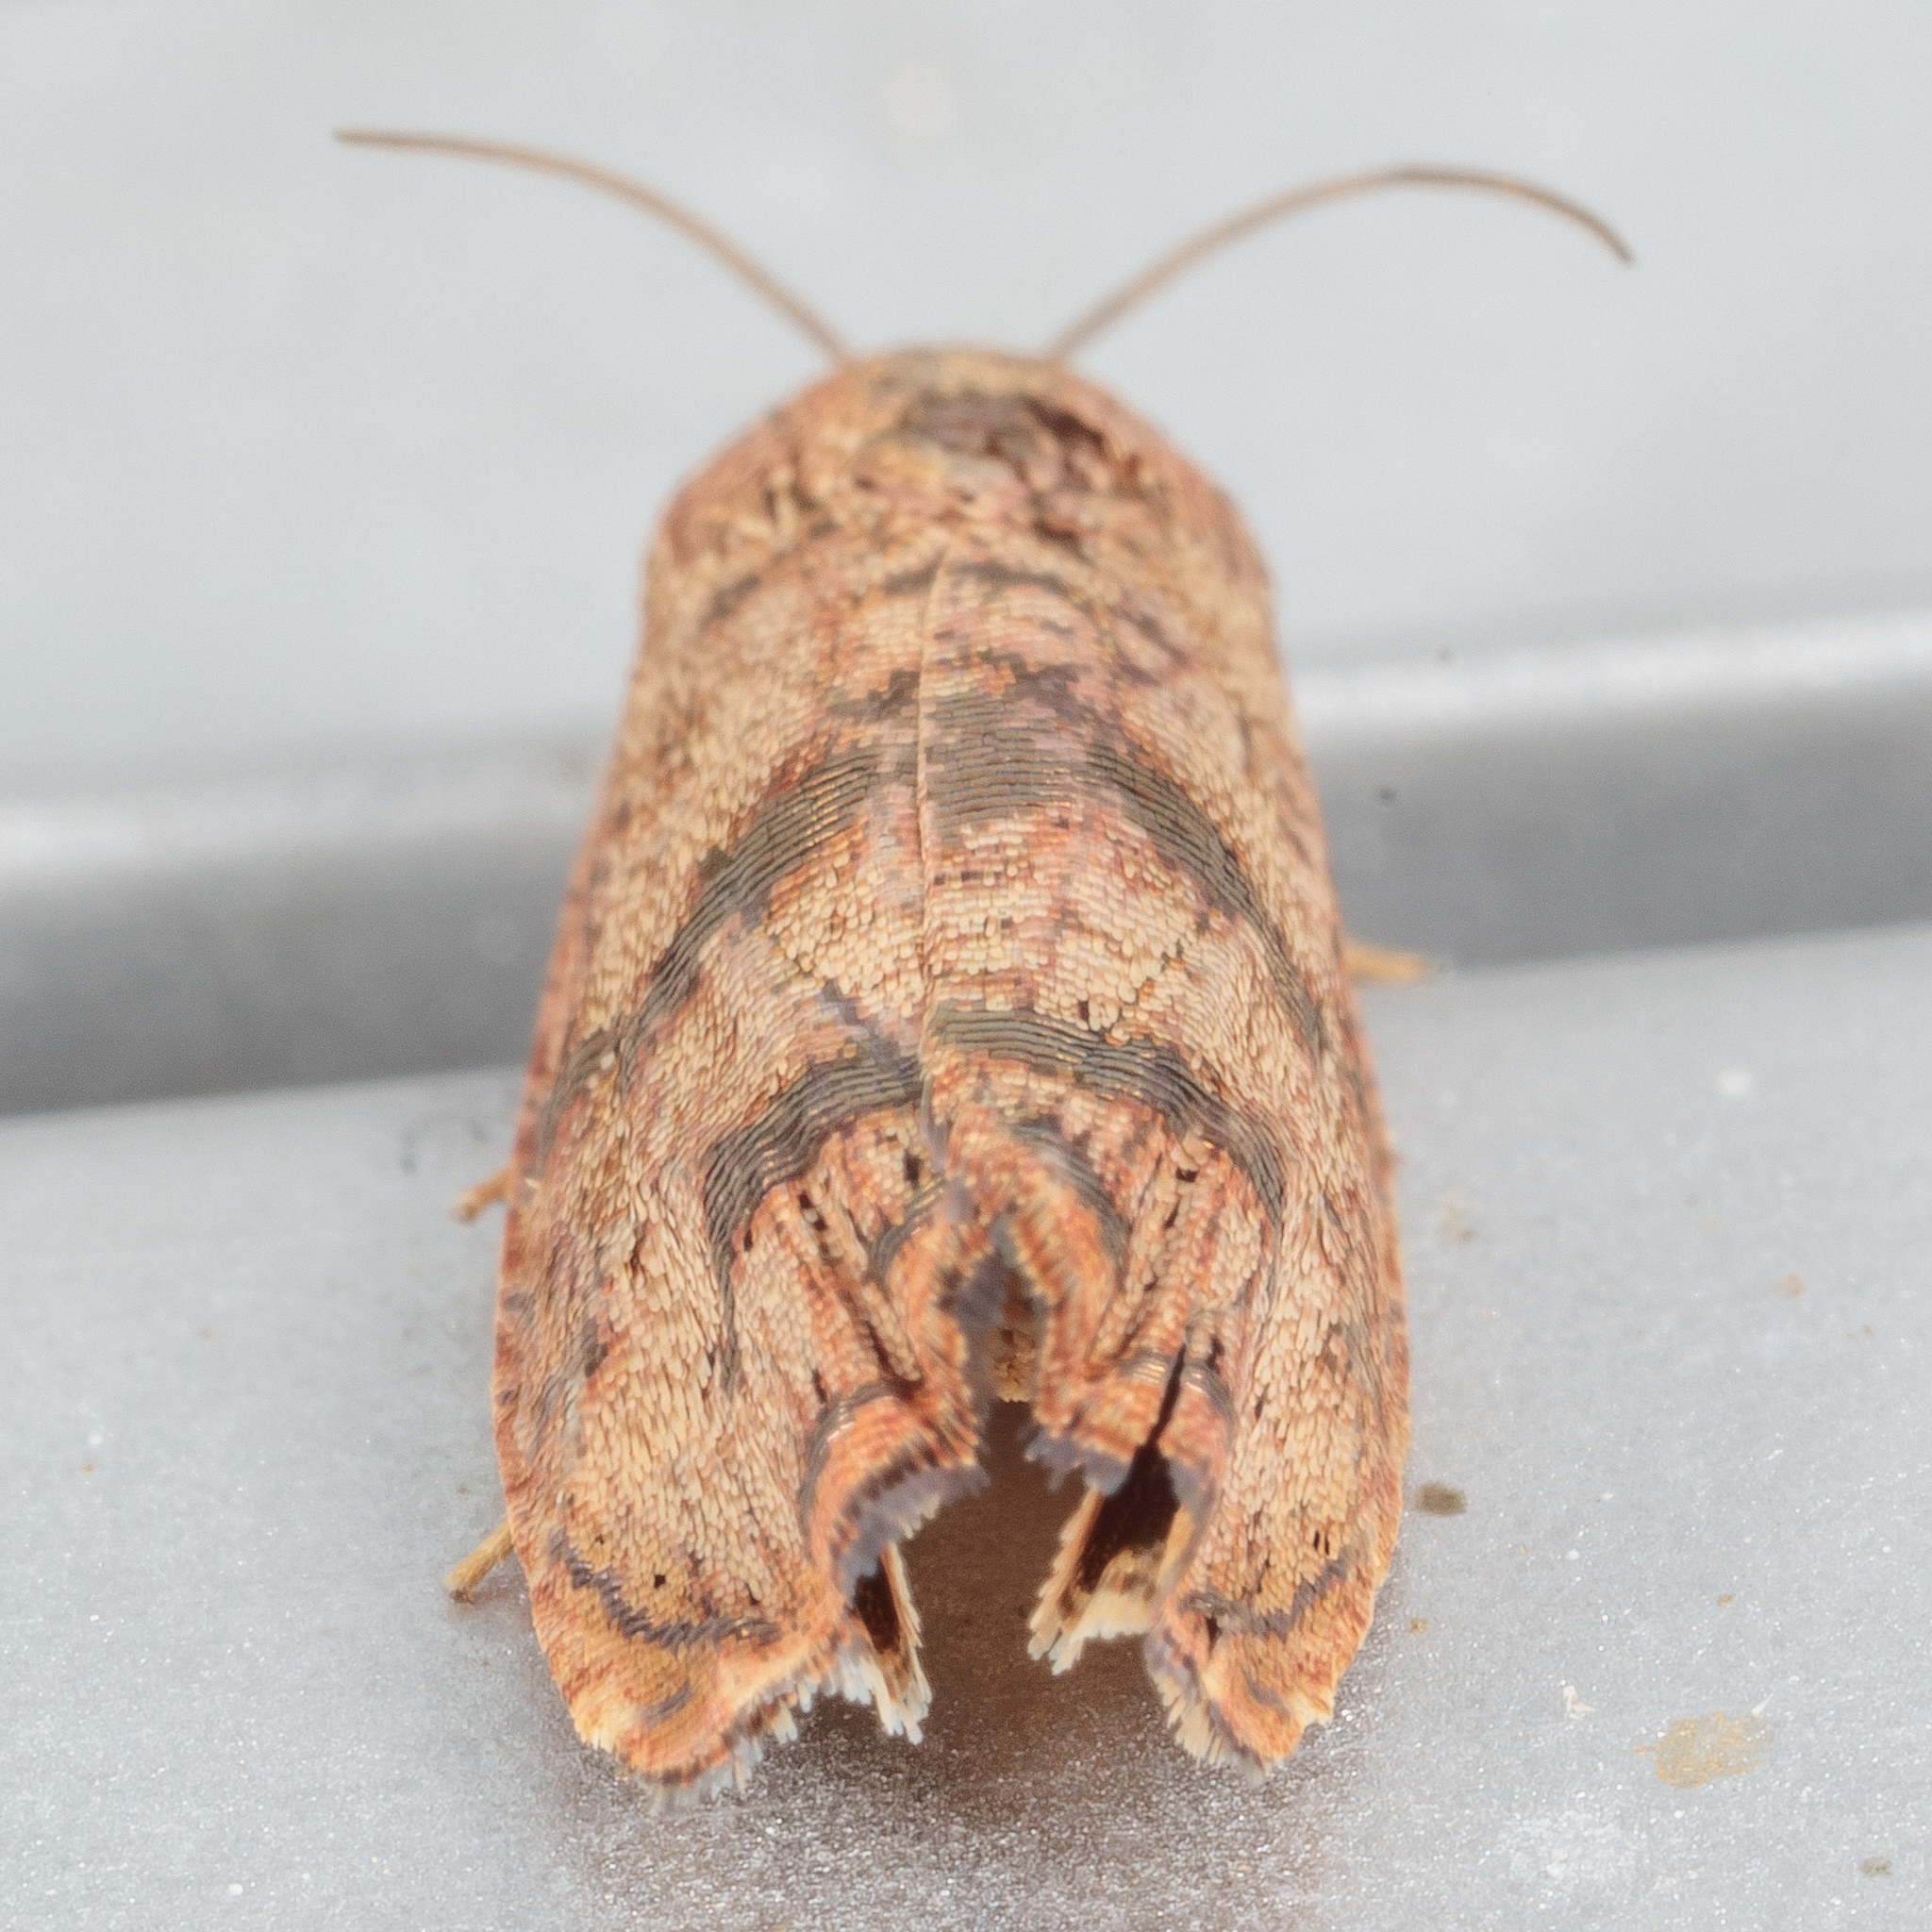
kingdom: Animalia
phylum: Arthropoda
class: Insecta
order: Lepidoptera
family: Tortricidae
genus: Cydia
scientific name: Cydia latiferreana
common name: Filbertworm moth
